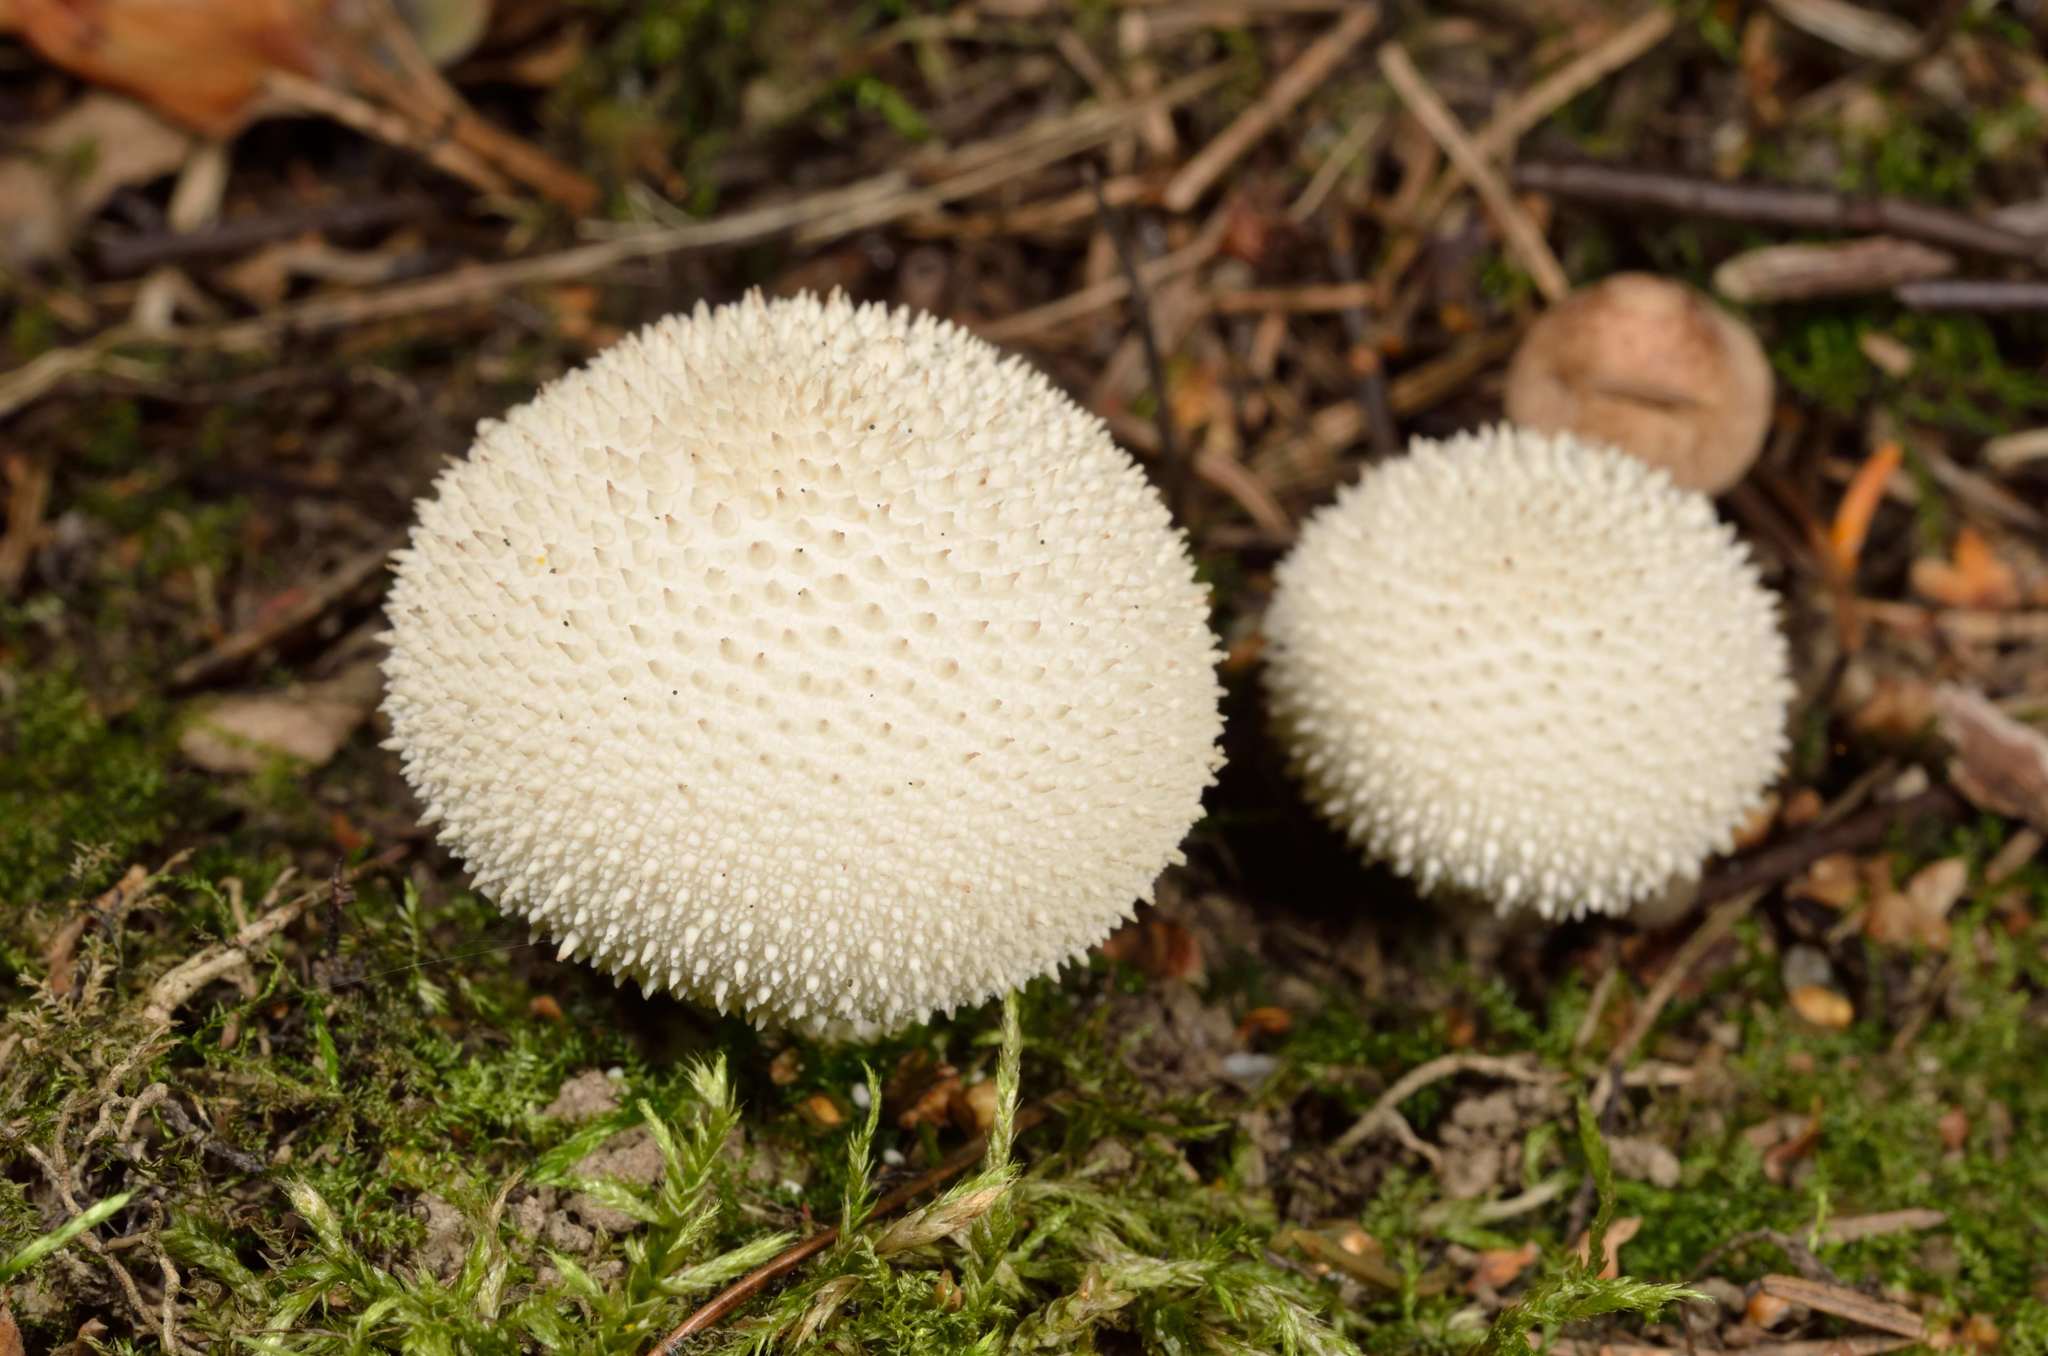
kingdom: Fungi
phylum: Basidiomycota
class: Agaricomycetes
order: Agaricales
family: Lycoperdaceae
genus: Lycoperdon
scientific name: Lycoperdon perlatum
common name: Common puffball
